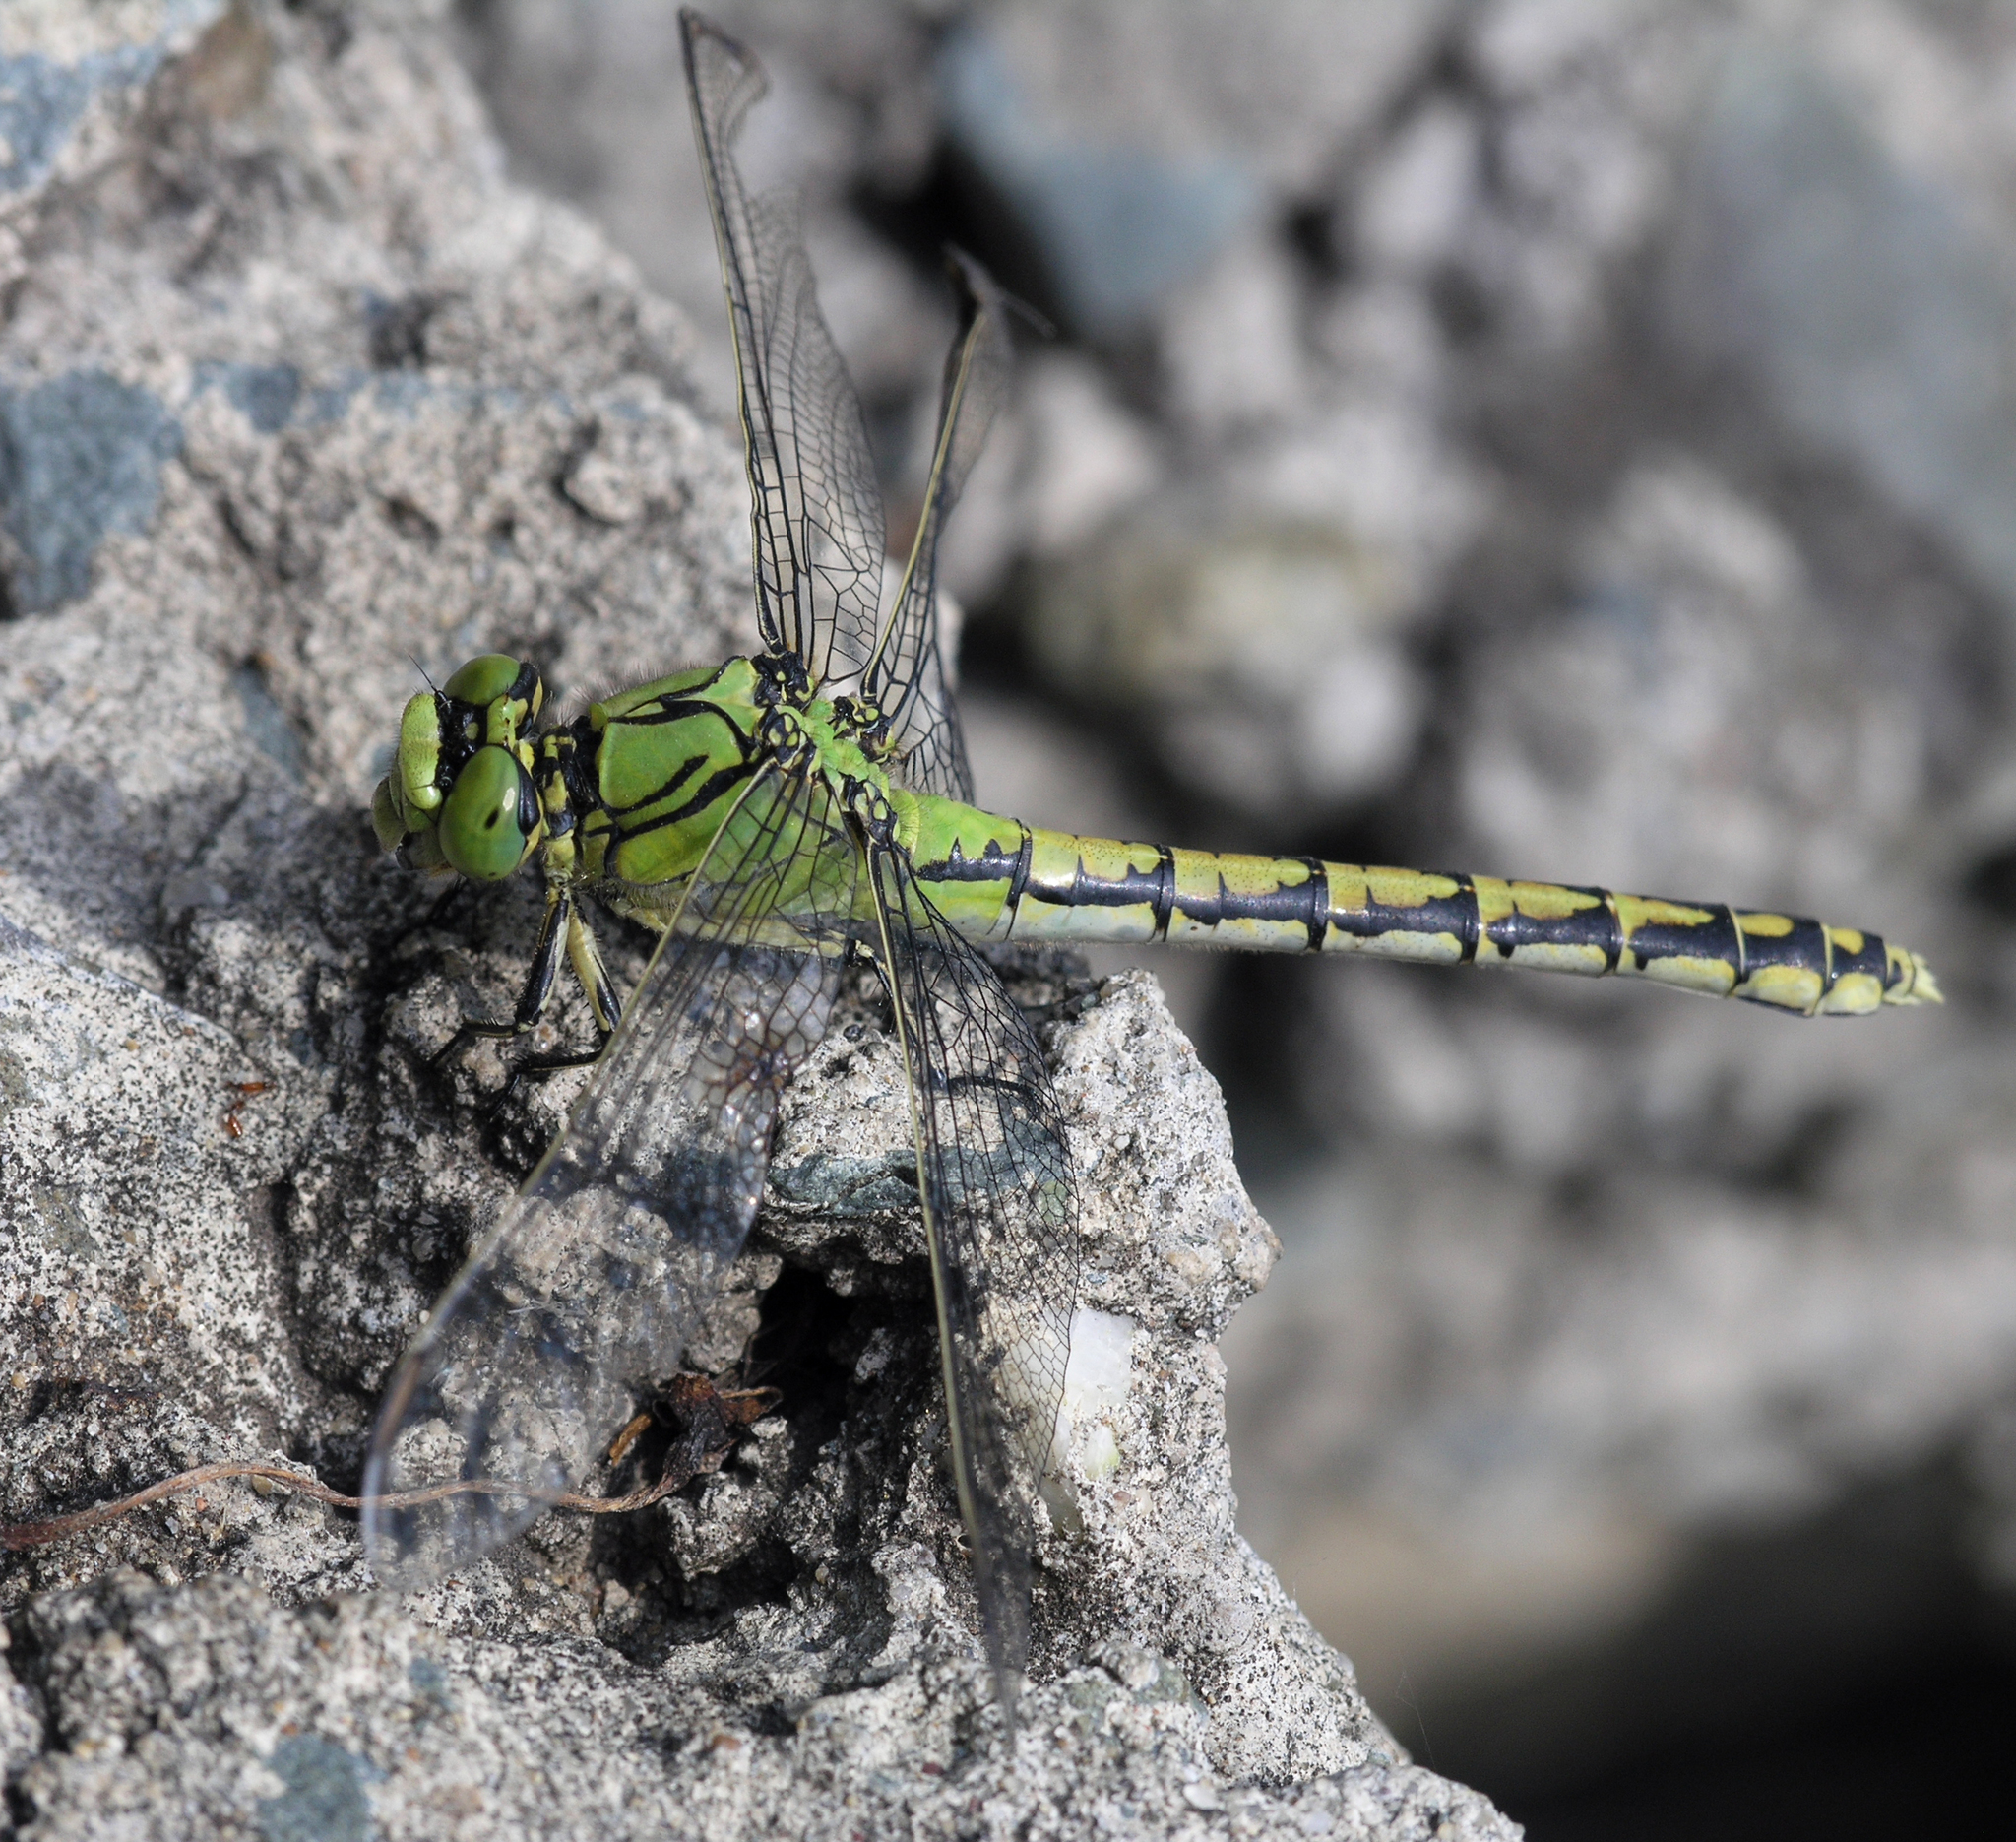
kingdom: Animalia
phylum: Arthropoda
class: Insecta
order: Odonata
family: Gomphidae
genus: Ophiogomphus
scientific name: Ophiogomphus cecilia
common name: Green snaketail
